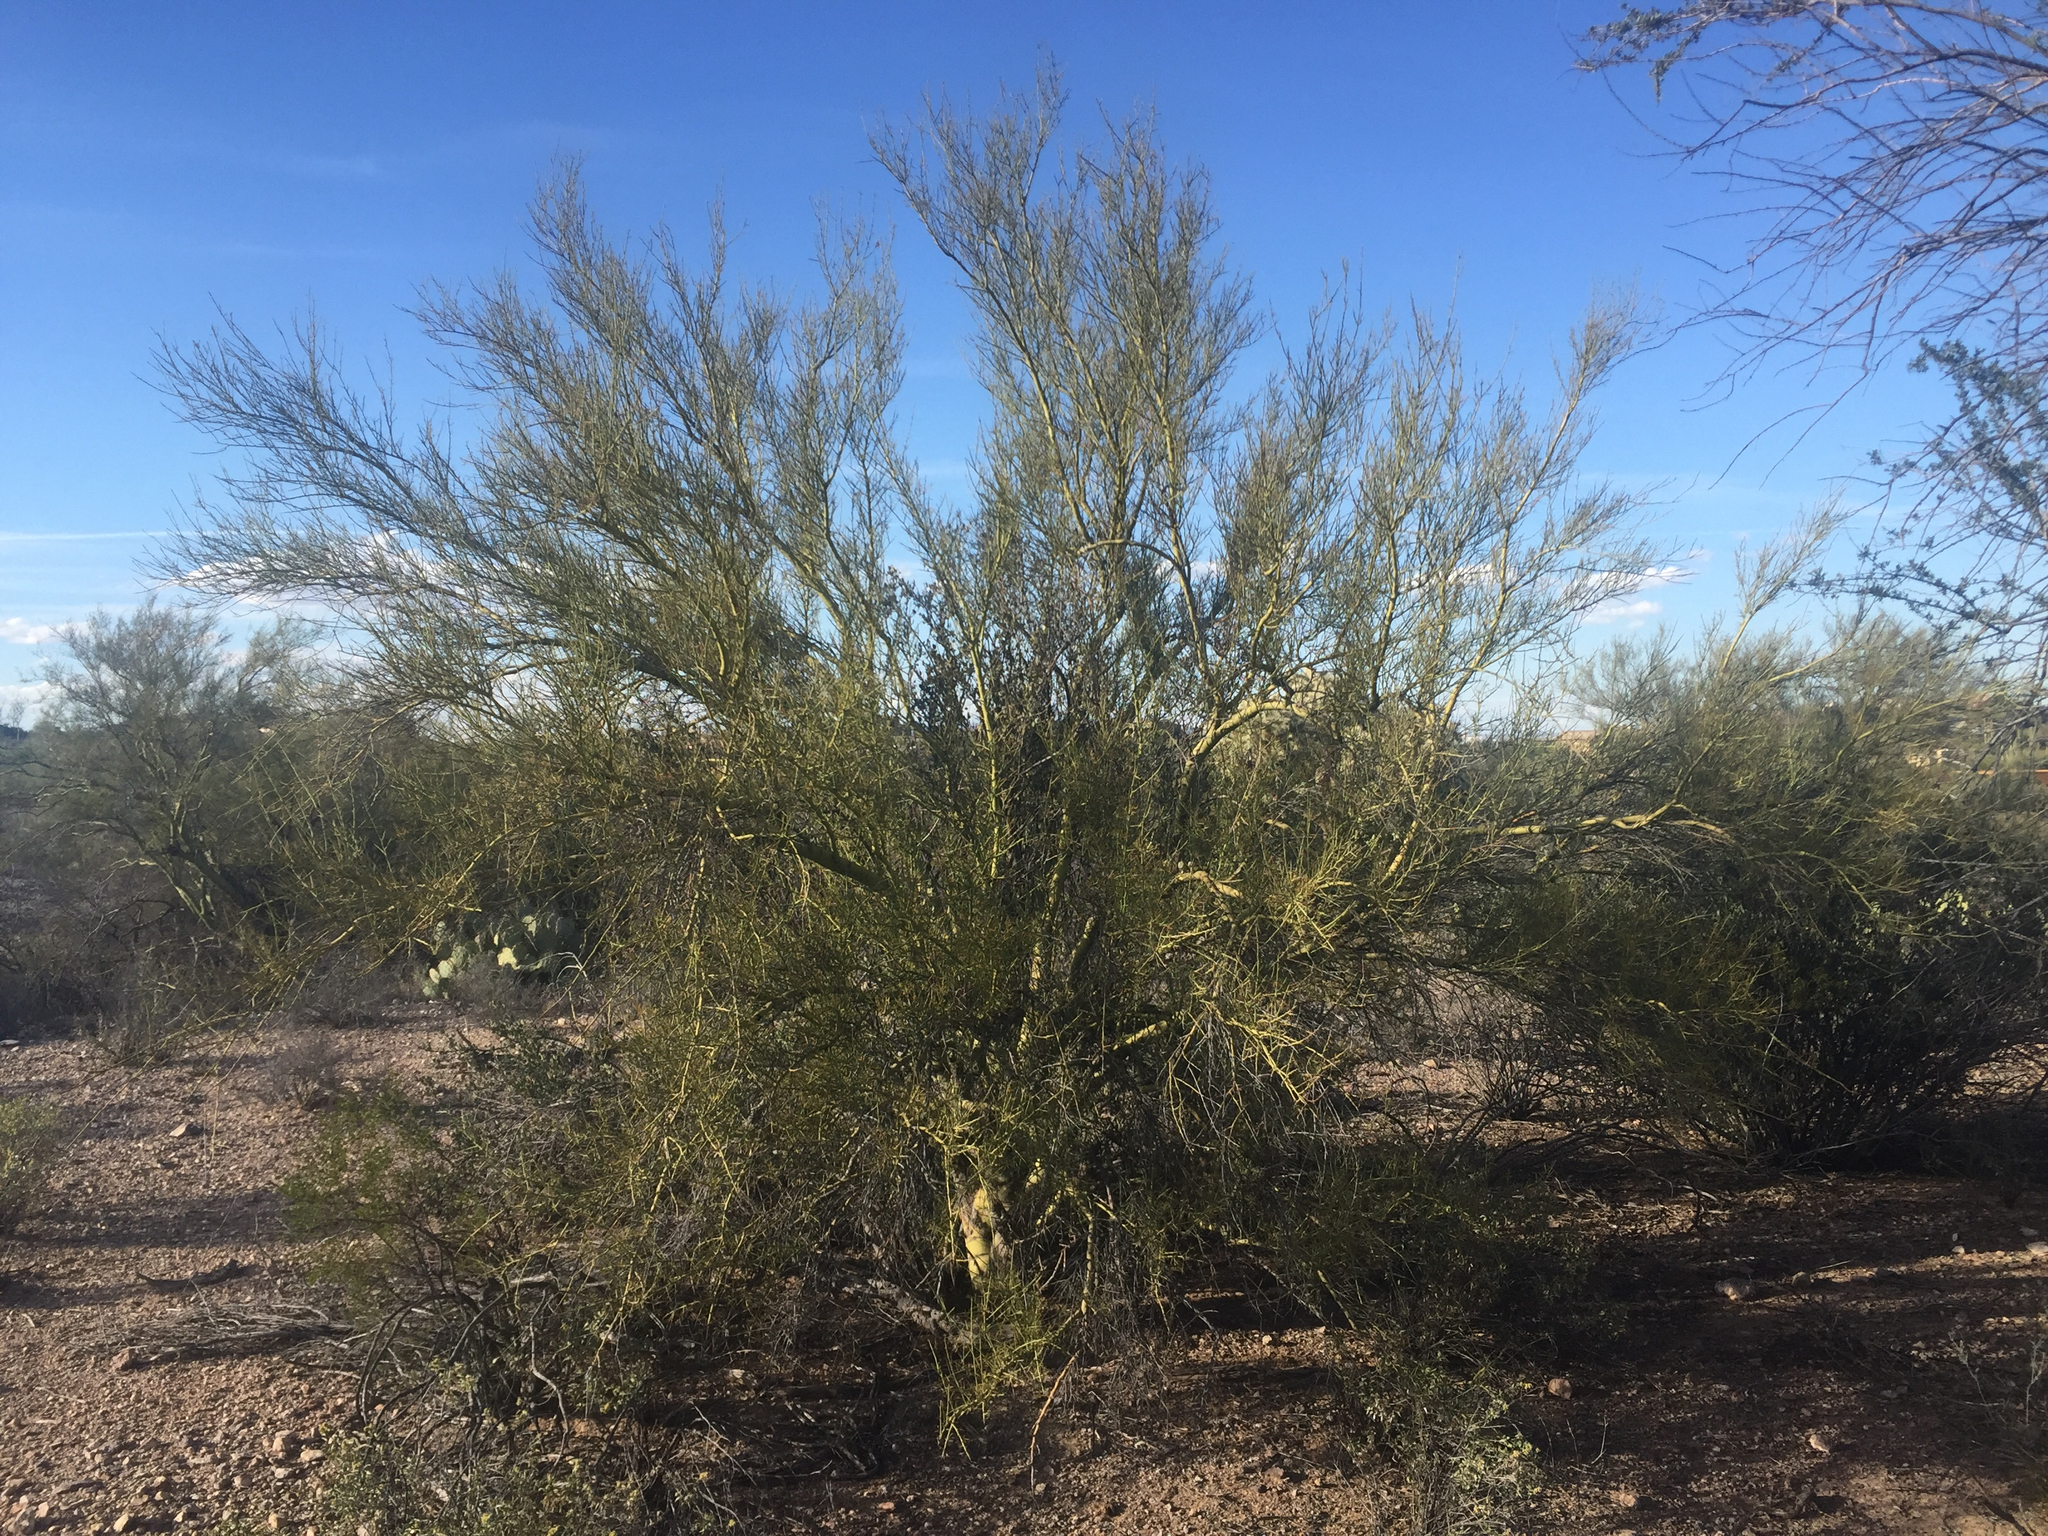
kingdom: Plantae
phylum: Tracheophyta
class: Magnoliopsida
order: Fabales
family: Fabaceae
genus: Parkinsonia
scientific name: Parkinsonia microphylla
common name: Yellow paloverde
